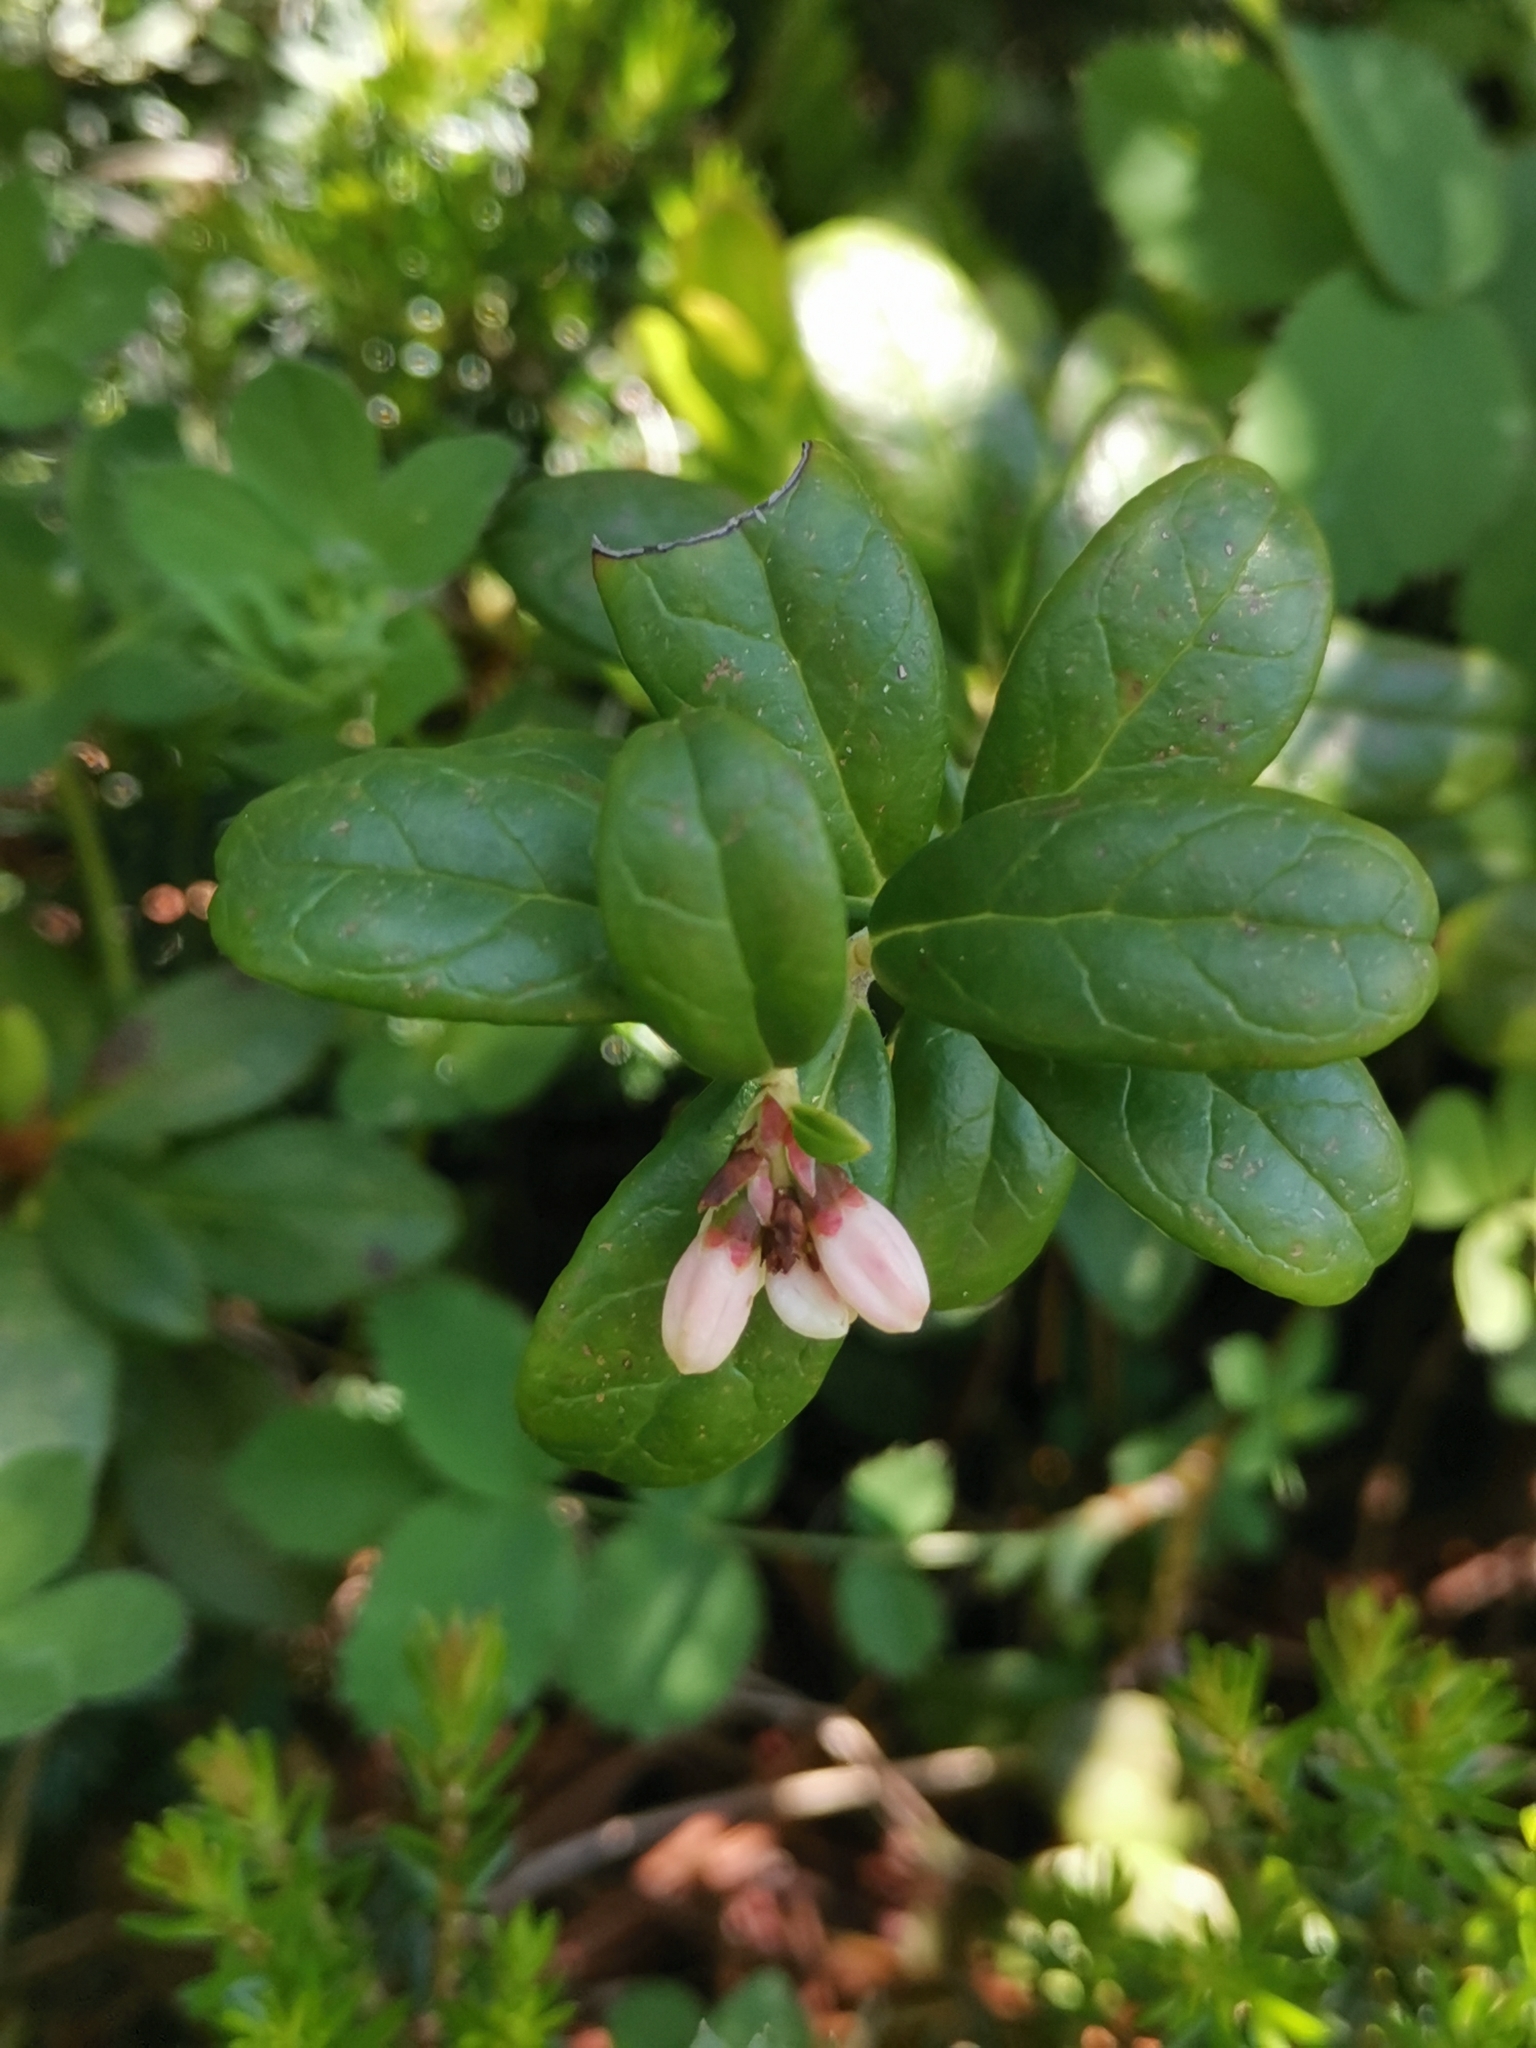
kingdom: Plantae
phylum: Tracheophyta
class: Magnoliopsida
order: Ericales
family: Ericaceae
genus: Vaccinium
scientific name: Vaccinium vitis-idaea
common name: Cowberry
